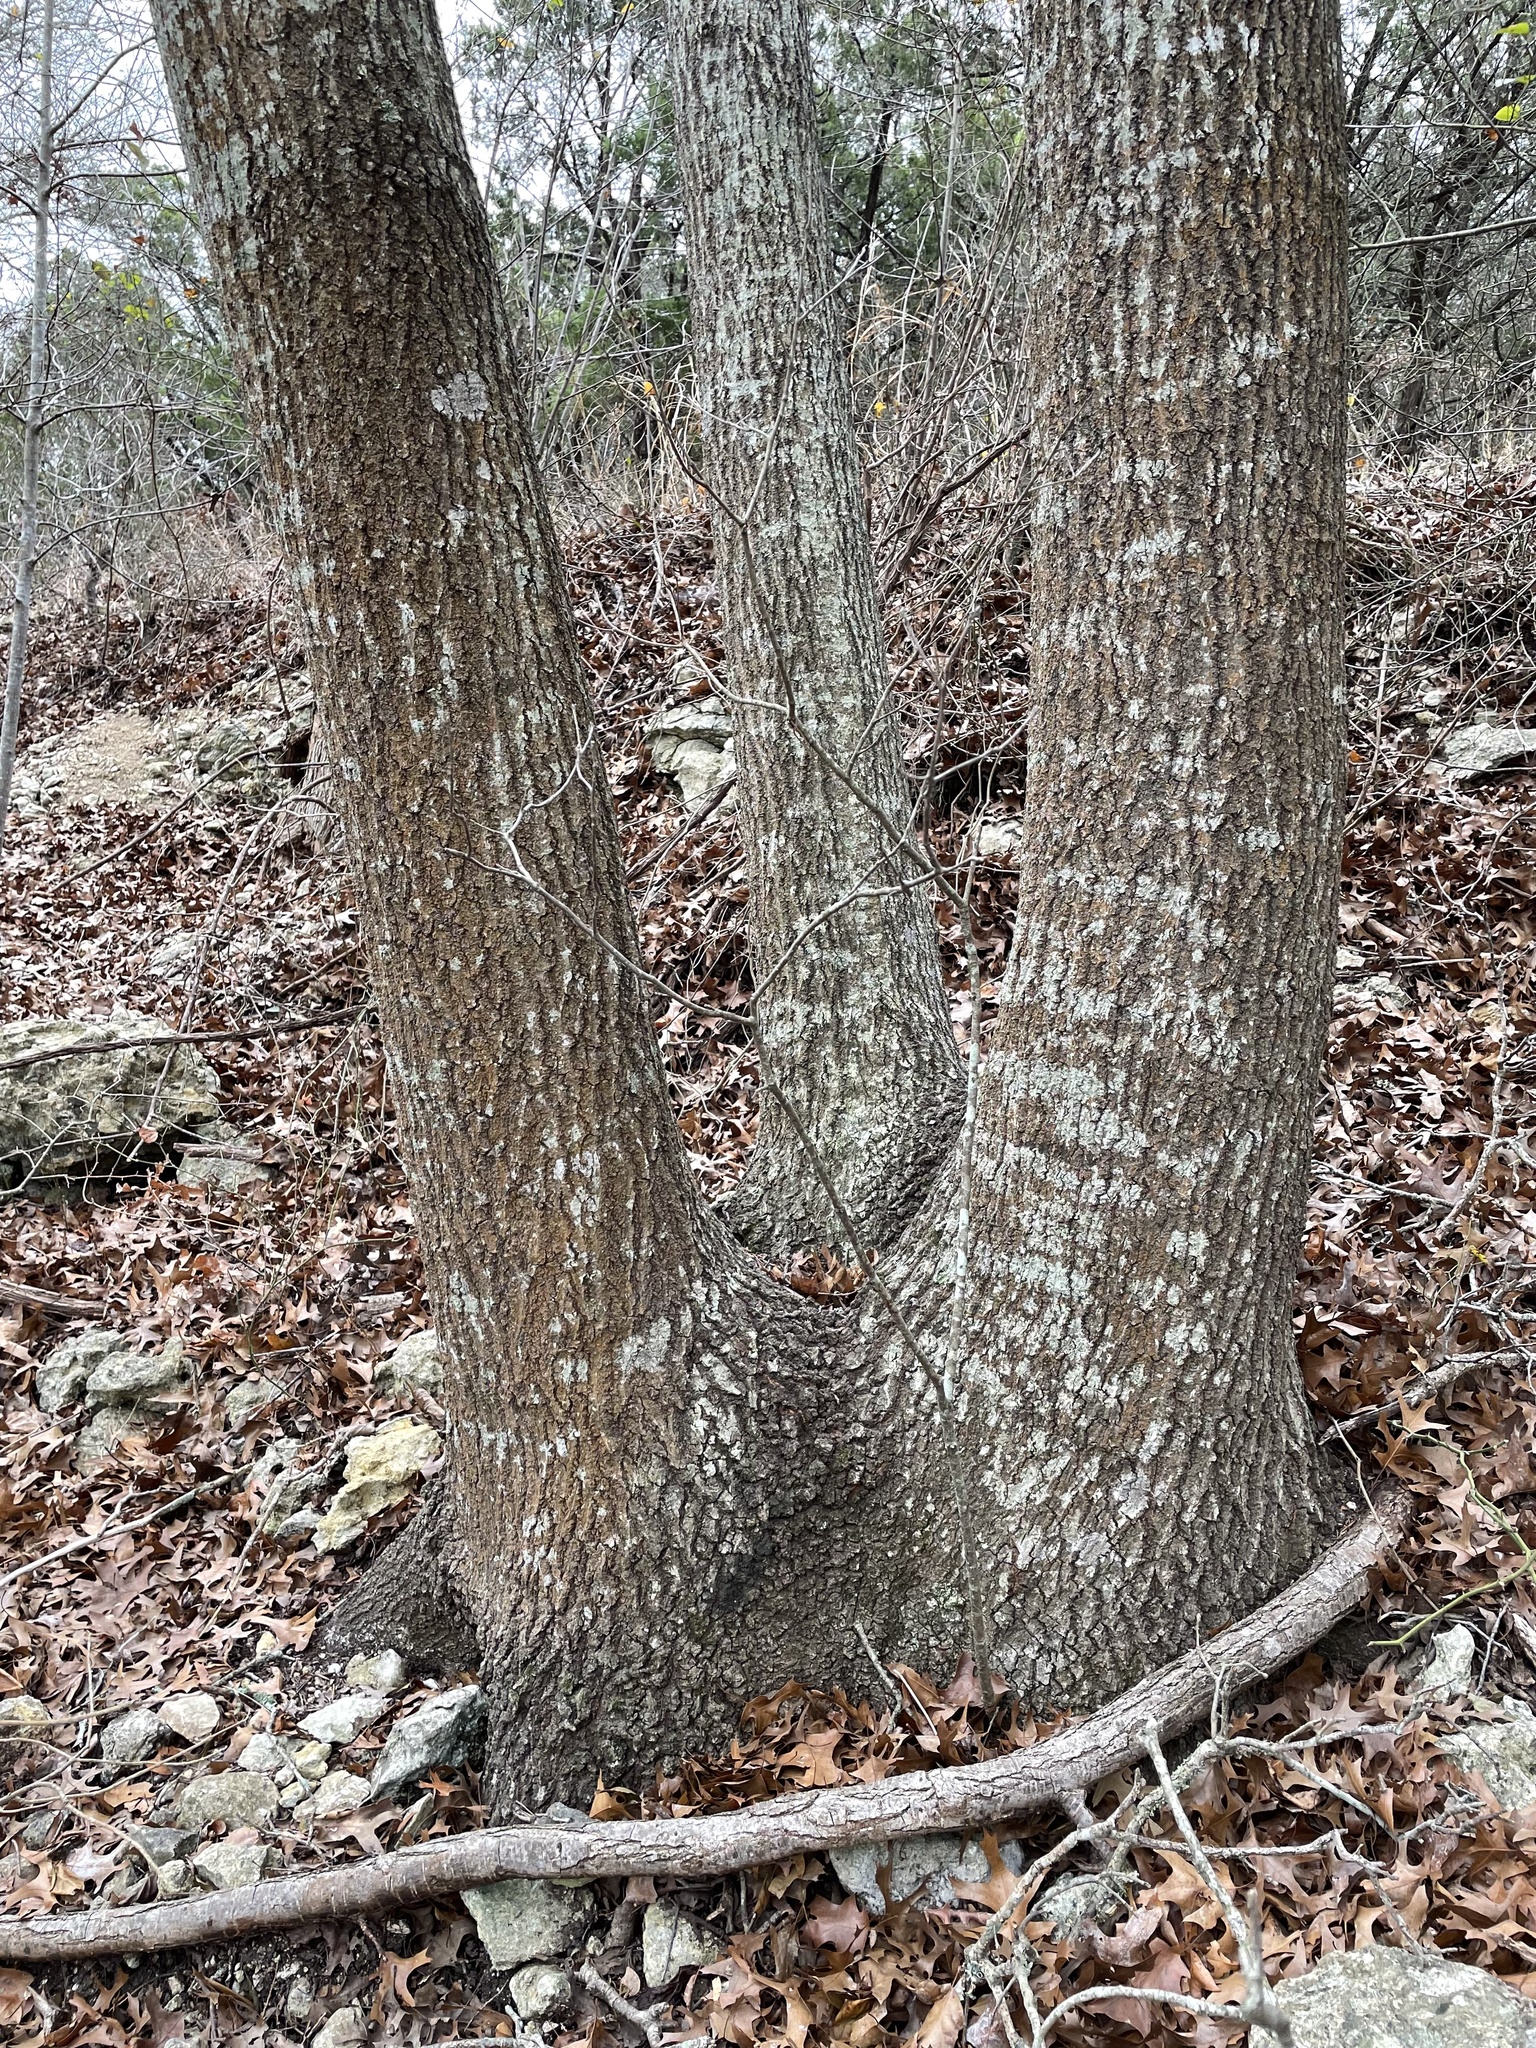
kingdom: Plantae
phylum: Tracheophyta
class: Magnoliopsida
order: Fagales
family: Fagaceae
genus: Quercus
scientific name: Quercus buckleyi
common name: Buckley oak
